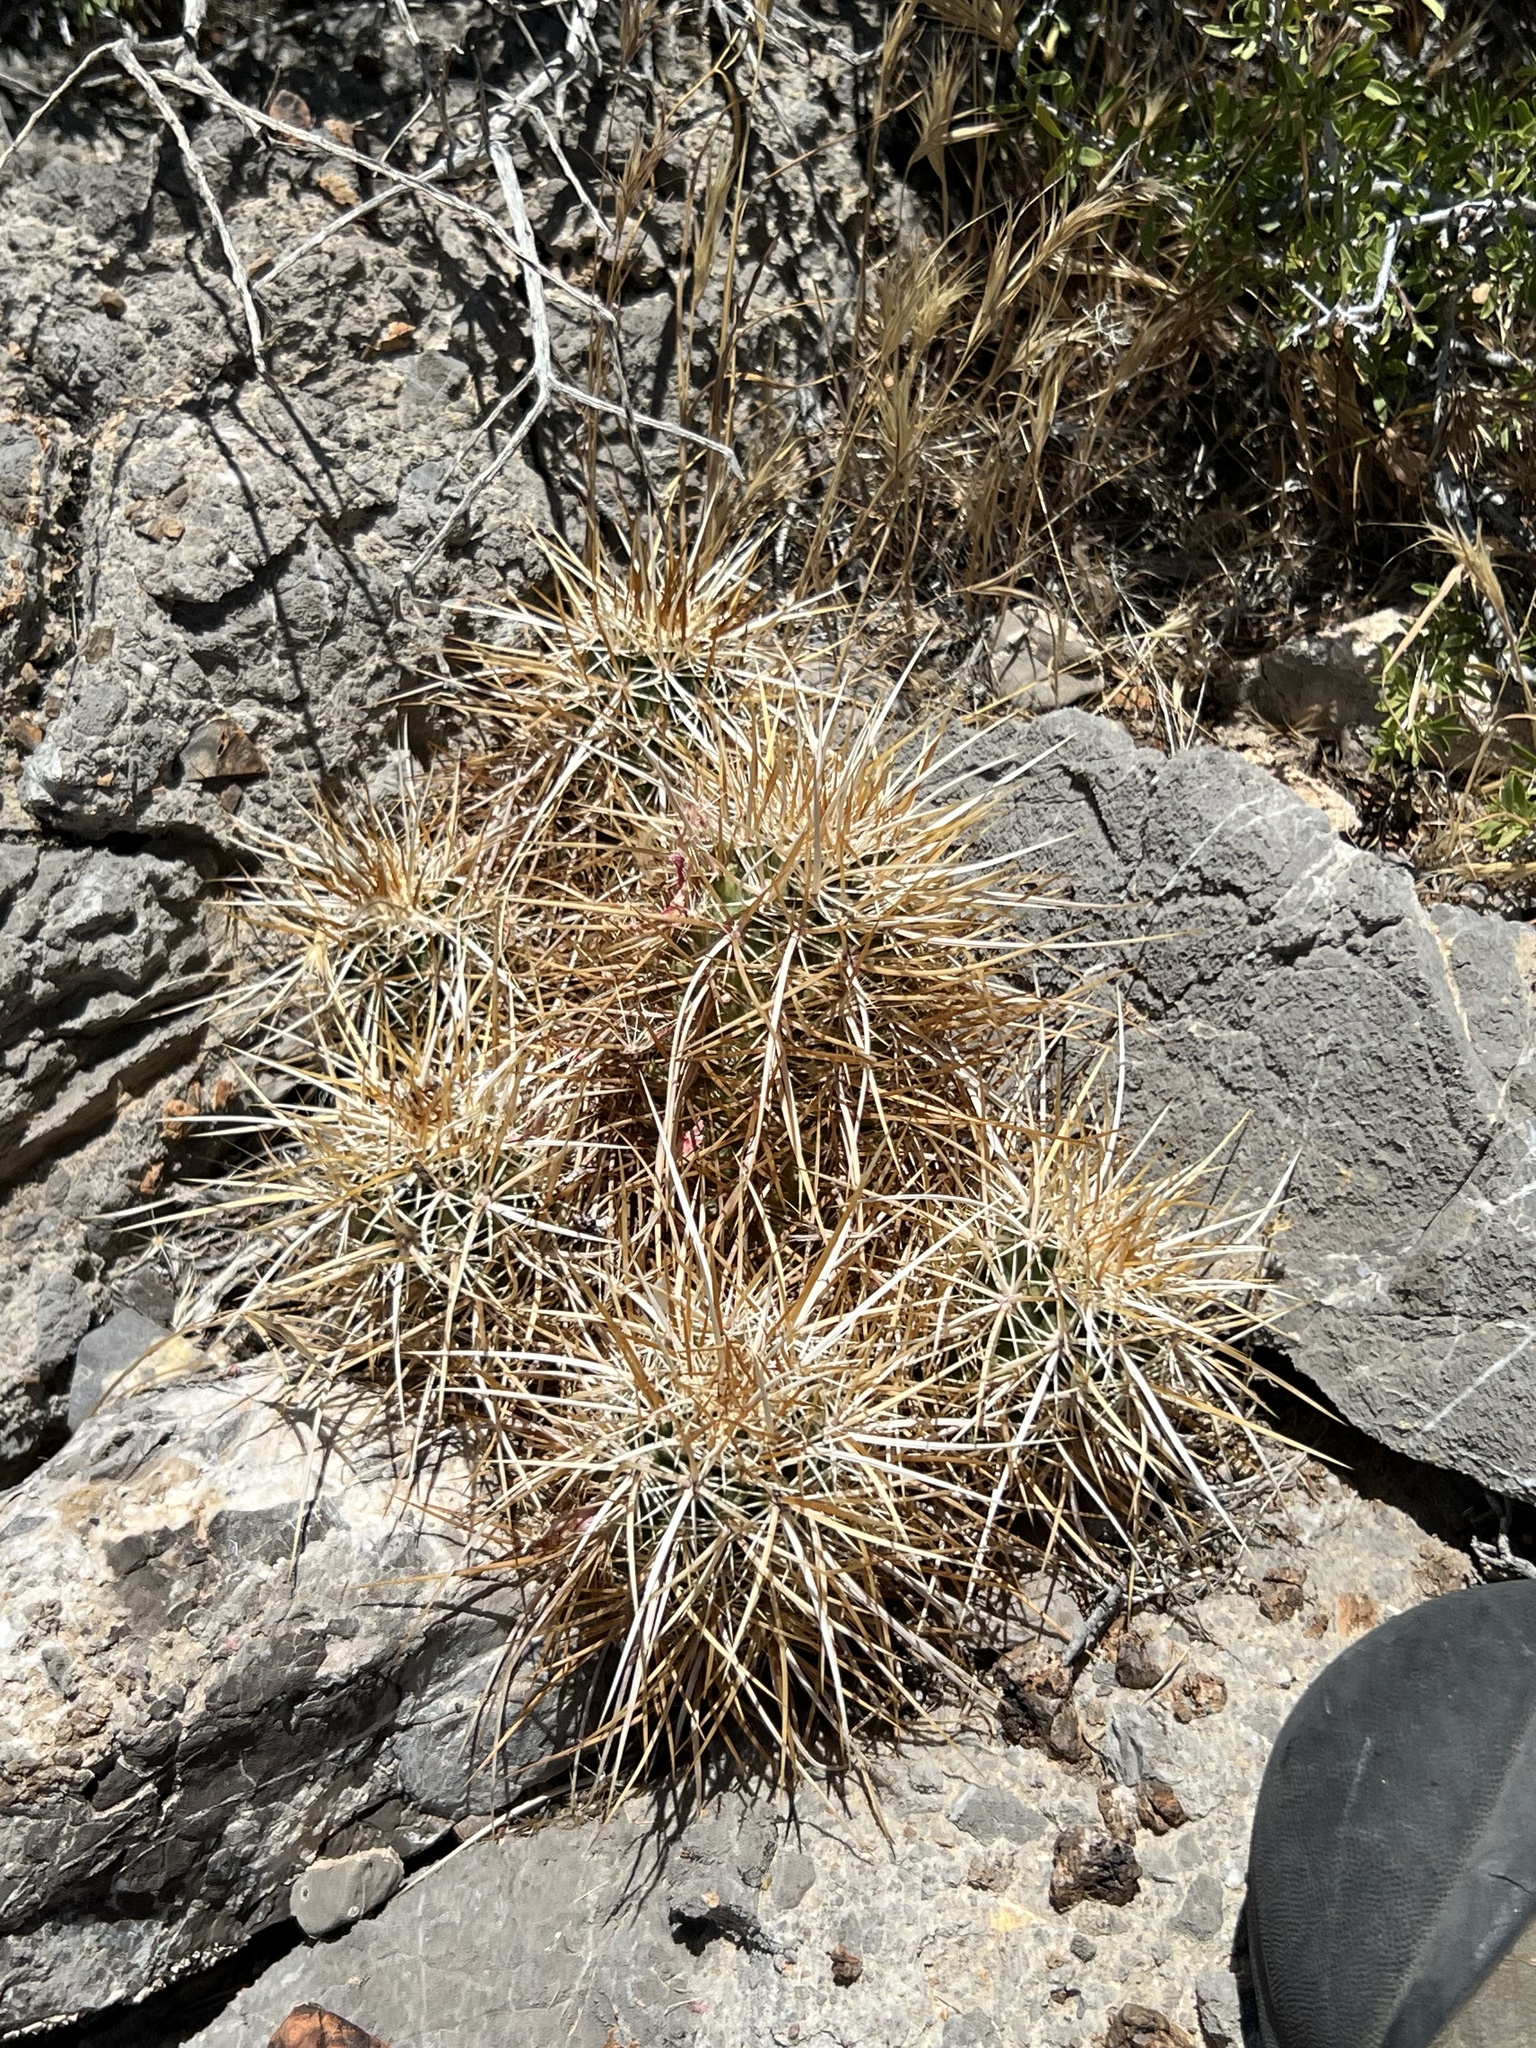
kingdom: Plantae
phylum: Tracheophyta
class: Magnoliopsida
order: Caryophyllales
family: Cactaceae
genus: Echinocereus
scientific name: Echinocereus engelmannii
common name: Engelmann's hedgehog cactus
